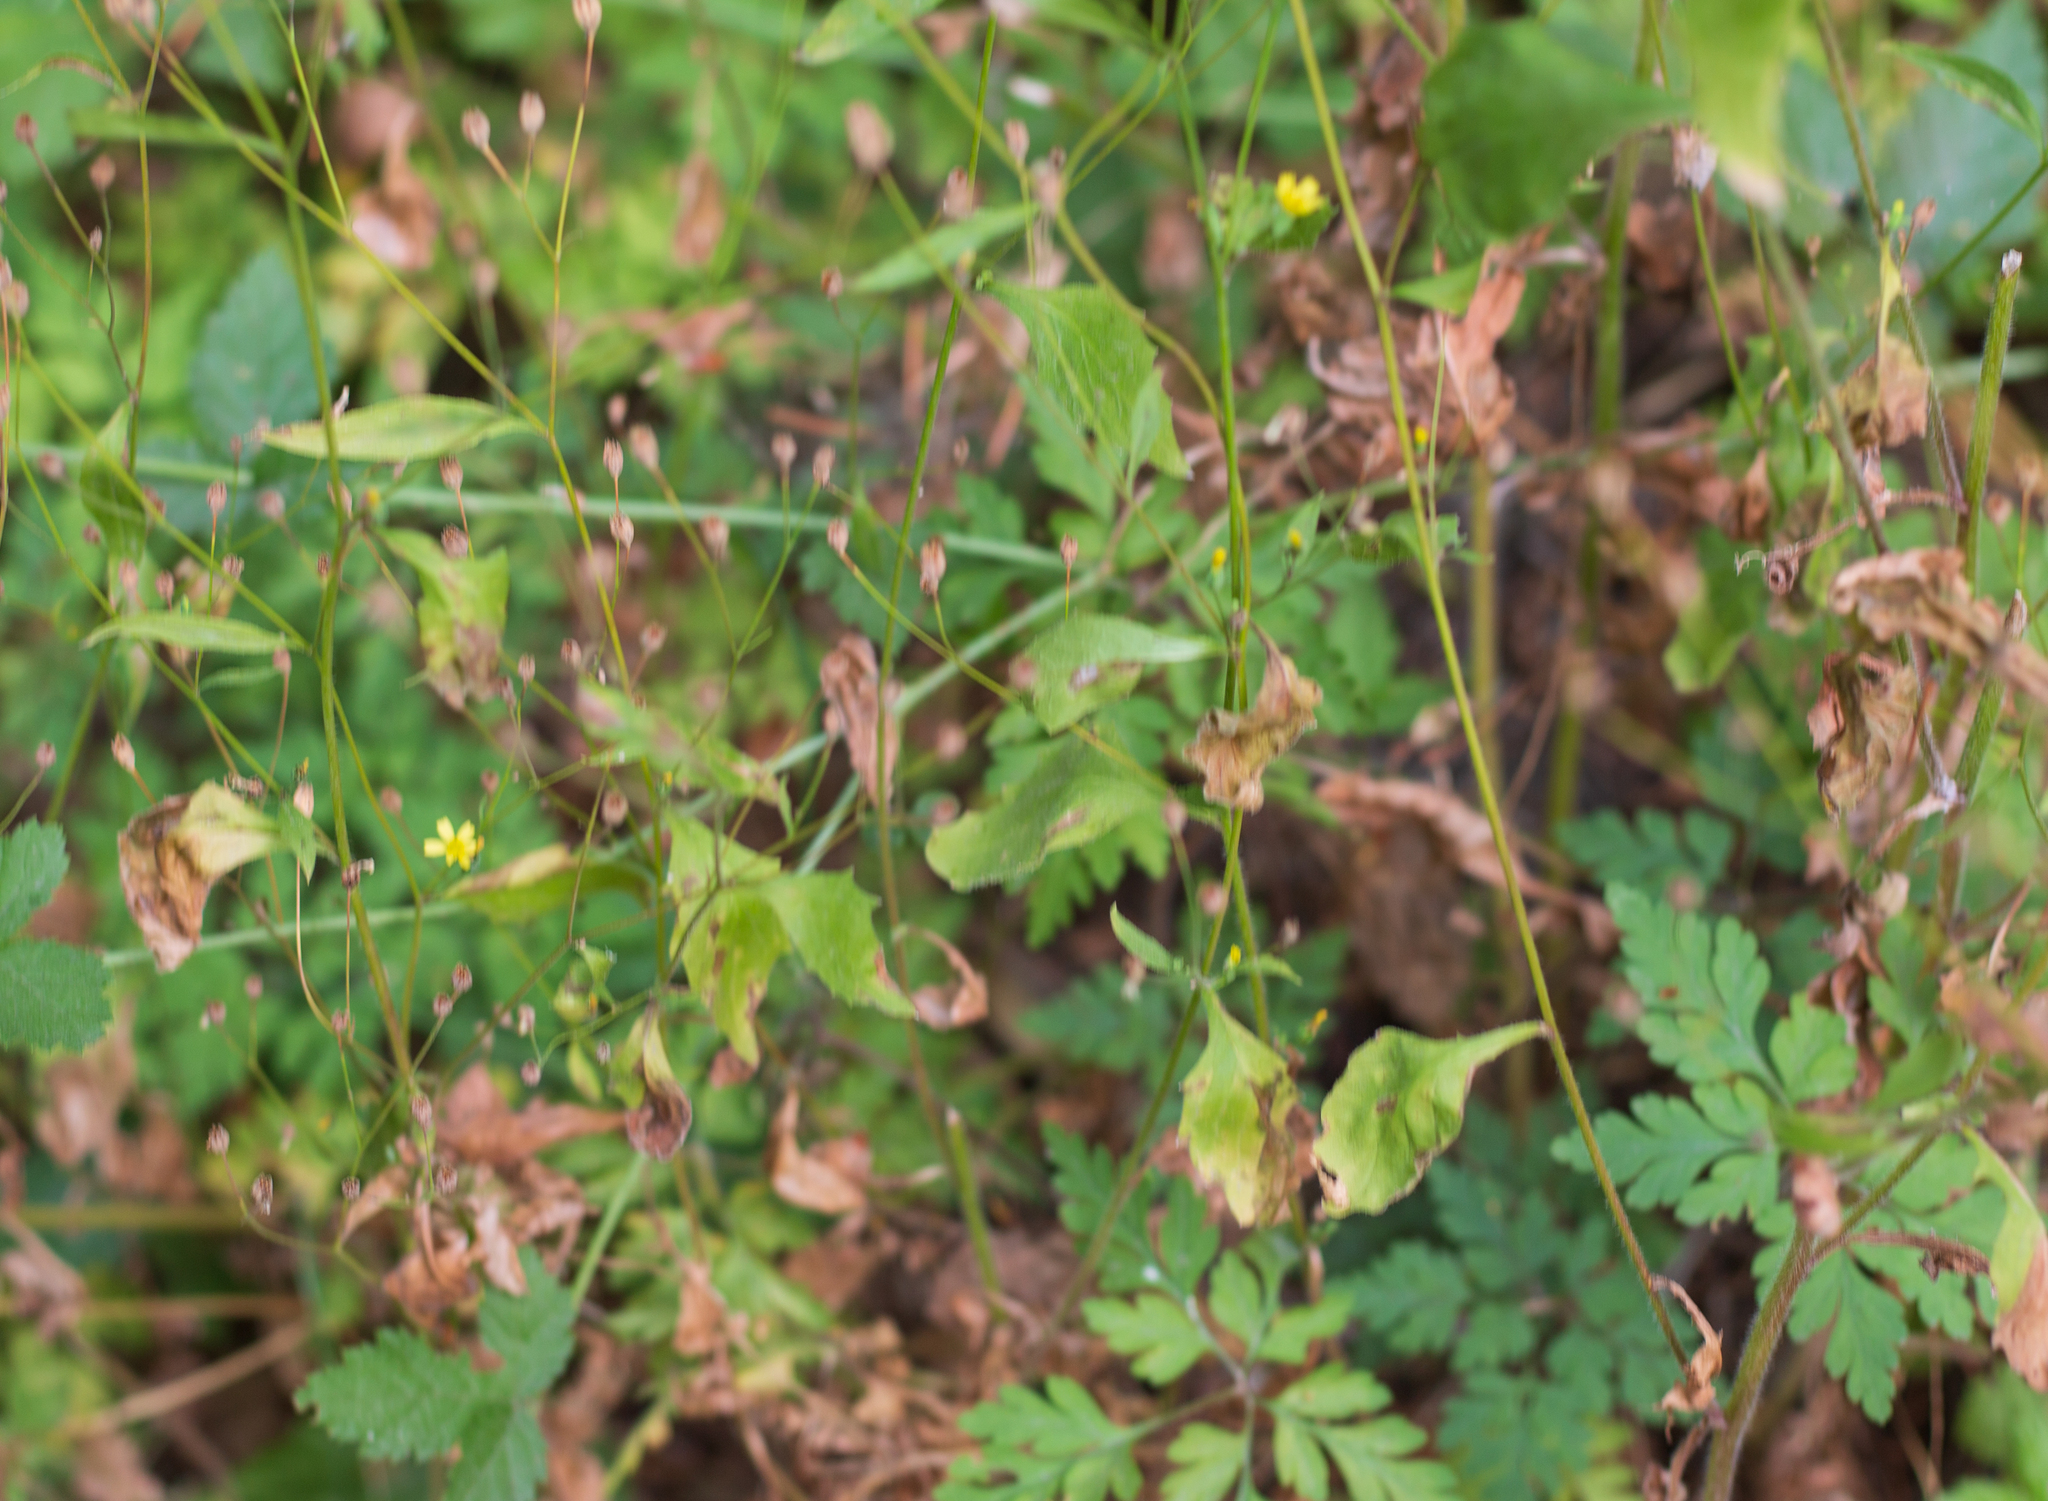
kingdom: Plantae
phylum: Tracheophyta
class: Magnoliopsida
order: Asterales
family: Asteraceae
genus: Lapsana
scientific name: Lapsana communis
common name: Nipplewort
